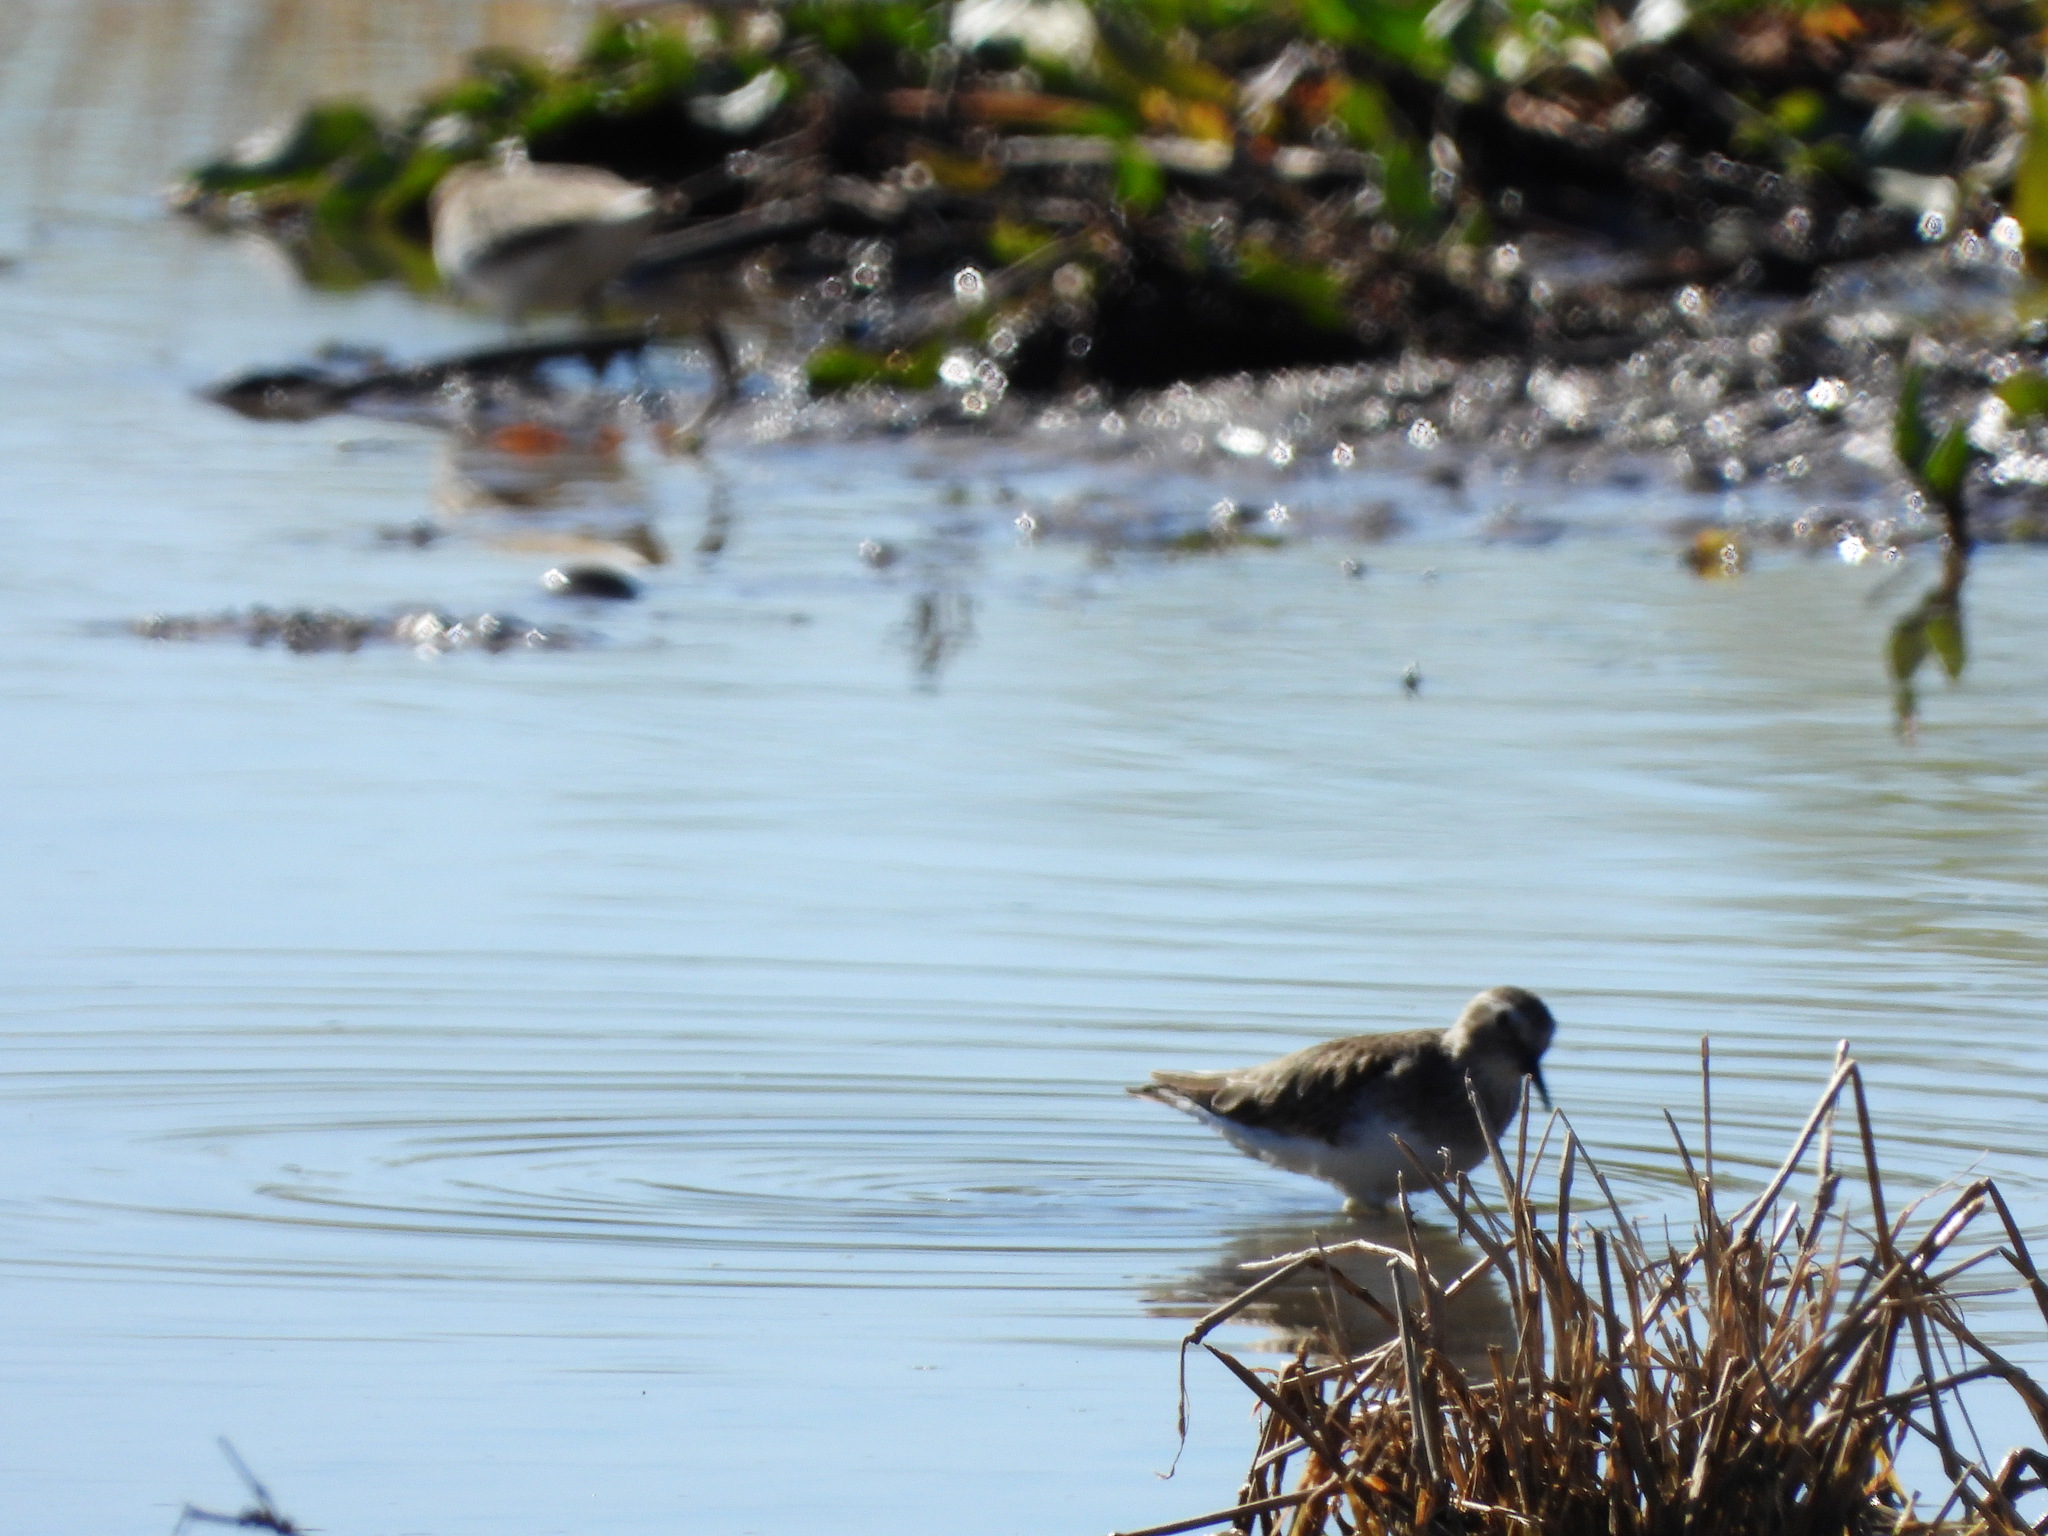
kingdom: Animalia
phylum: Chordata
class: Aves
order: Charadriiformes
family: Scolopacidae
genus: Calidris
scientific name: Calidris minutilla
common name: Least sandpiper
